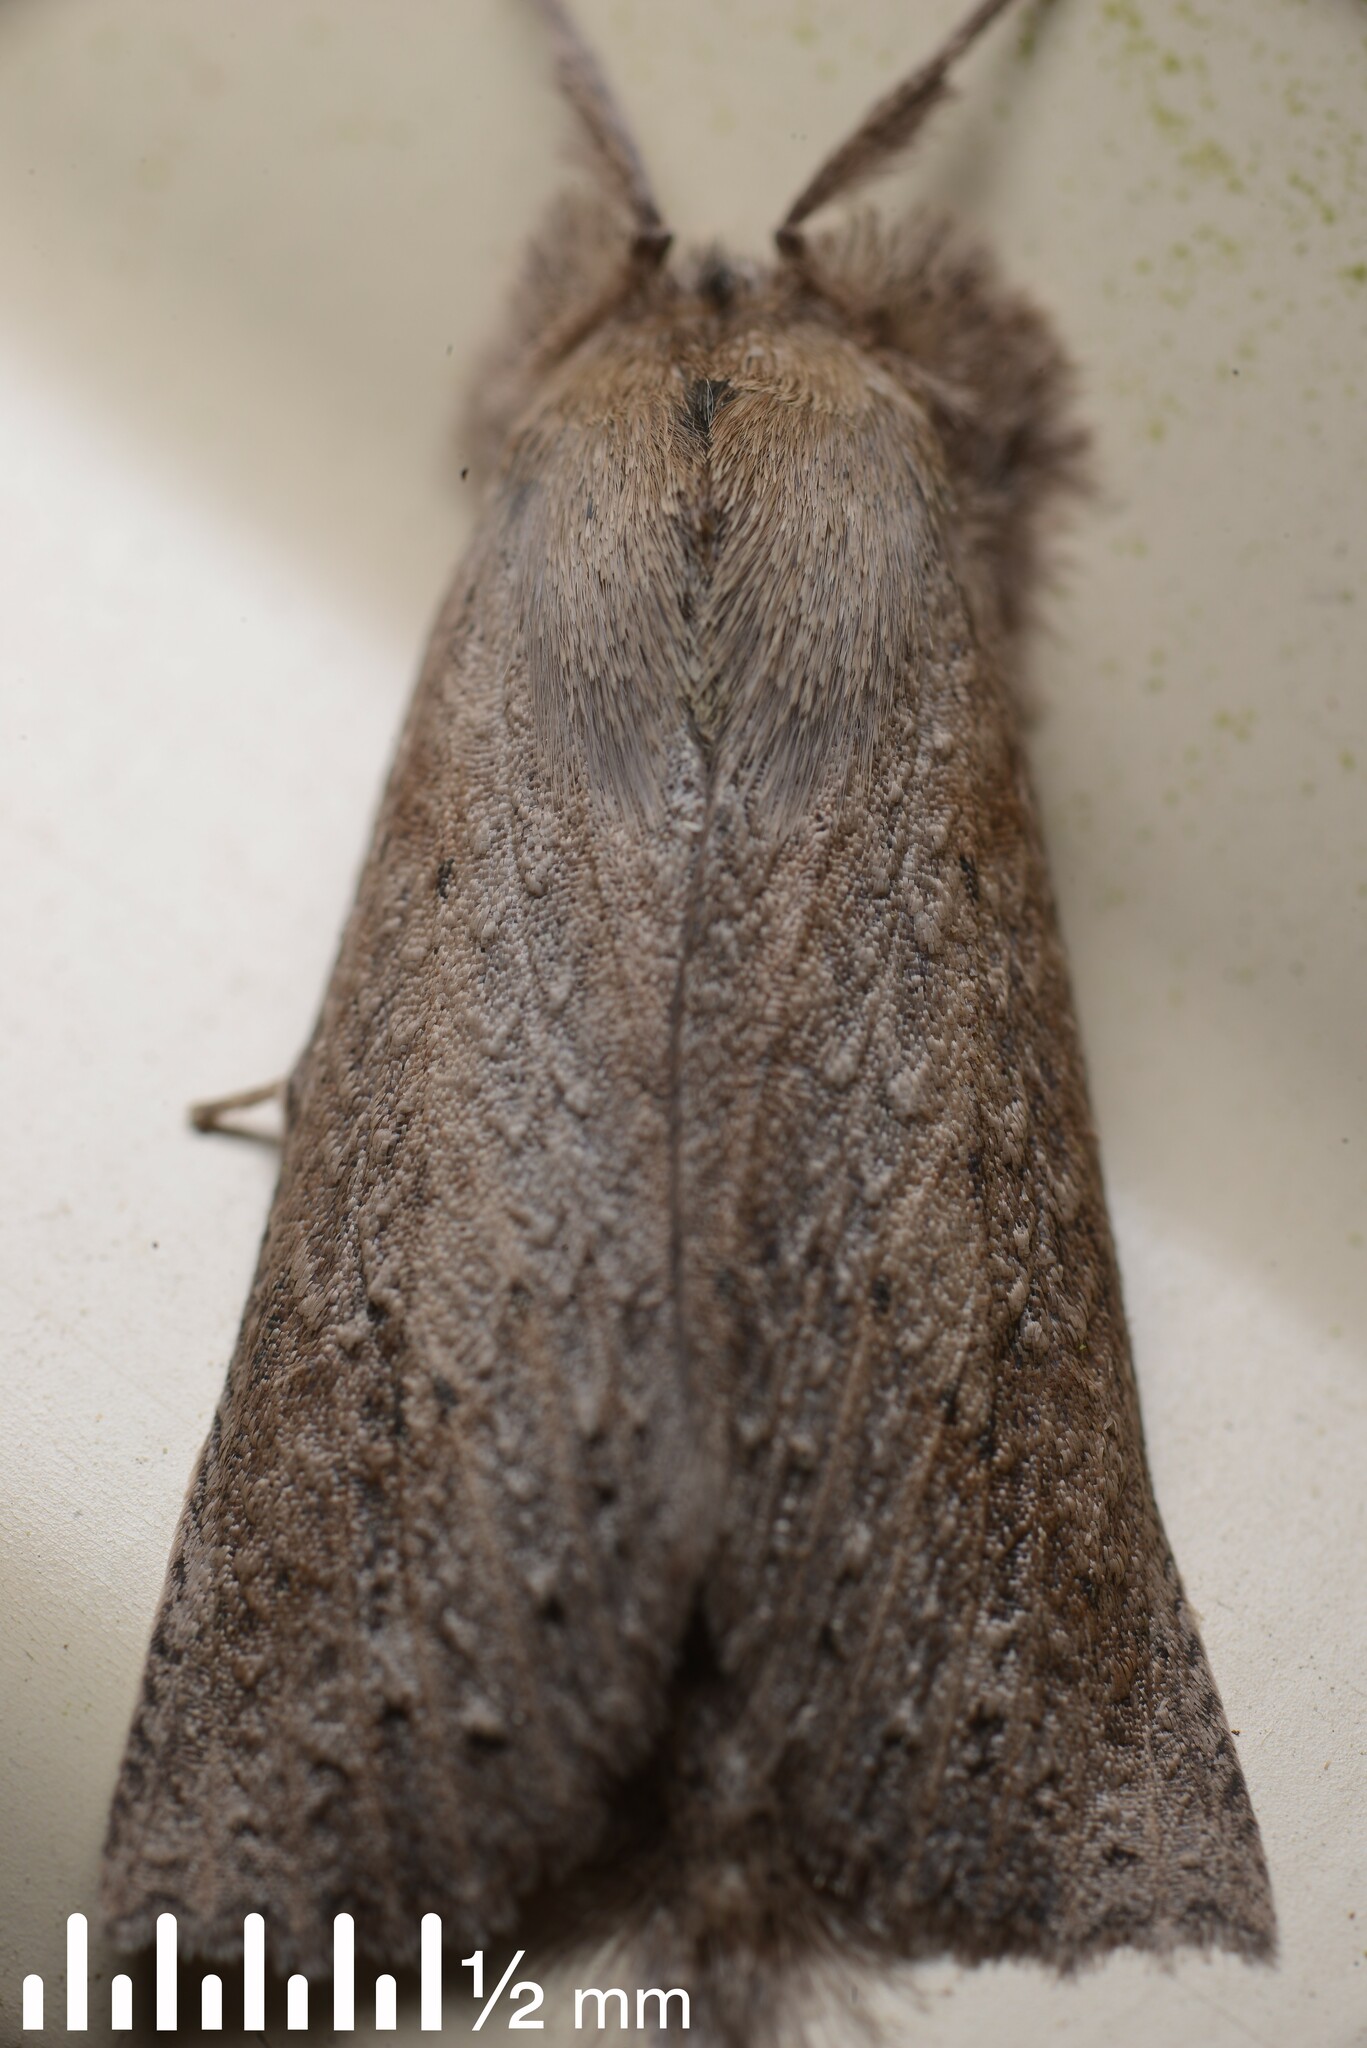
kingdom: Animalia
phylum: Arthropoda
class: Insecta
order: Lepidoptera
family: Geometridae
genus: Declana
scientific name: Declana leptomera
